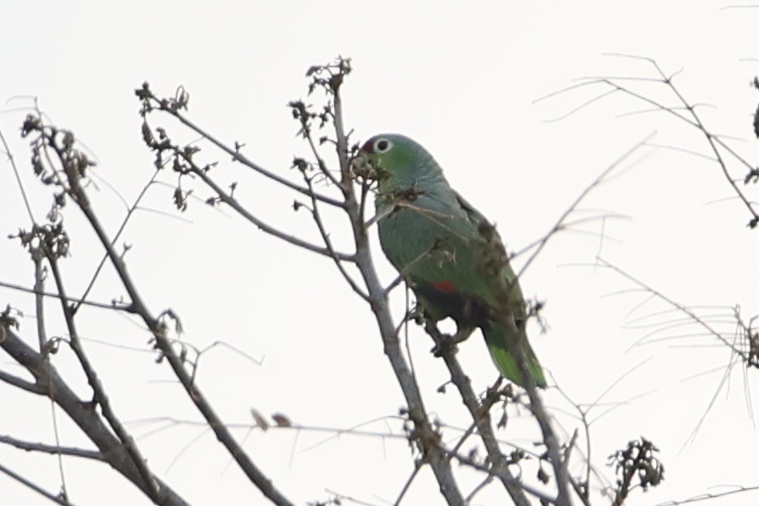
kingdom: Animalia
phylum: Chordata
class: Aves
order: Psittaciformes
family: Psittacidae
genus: Amazona
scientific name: Amazona autumnalis
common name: Red-lored amazon
